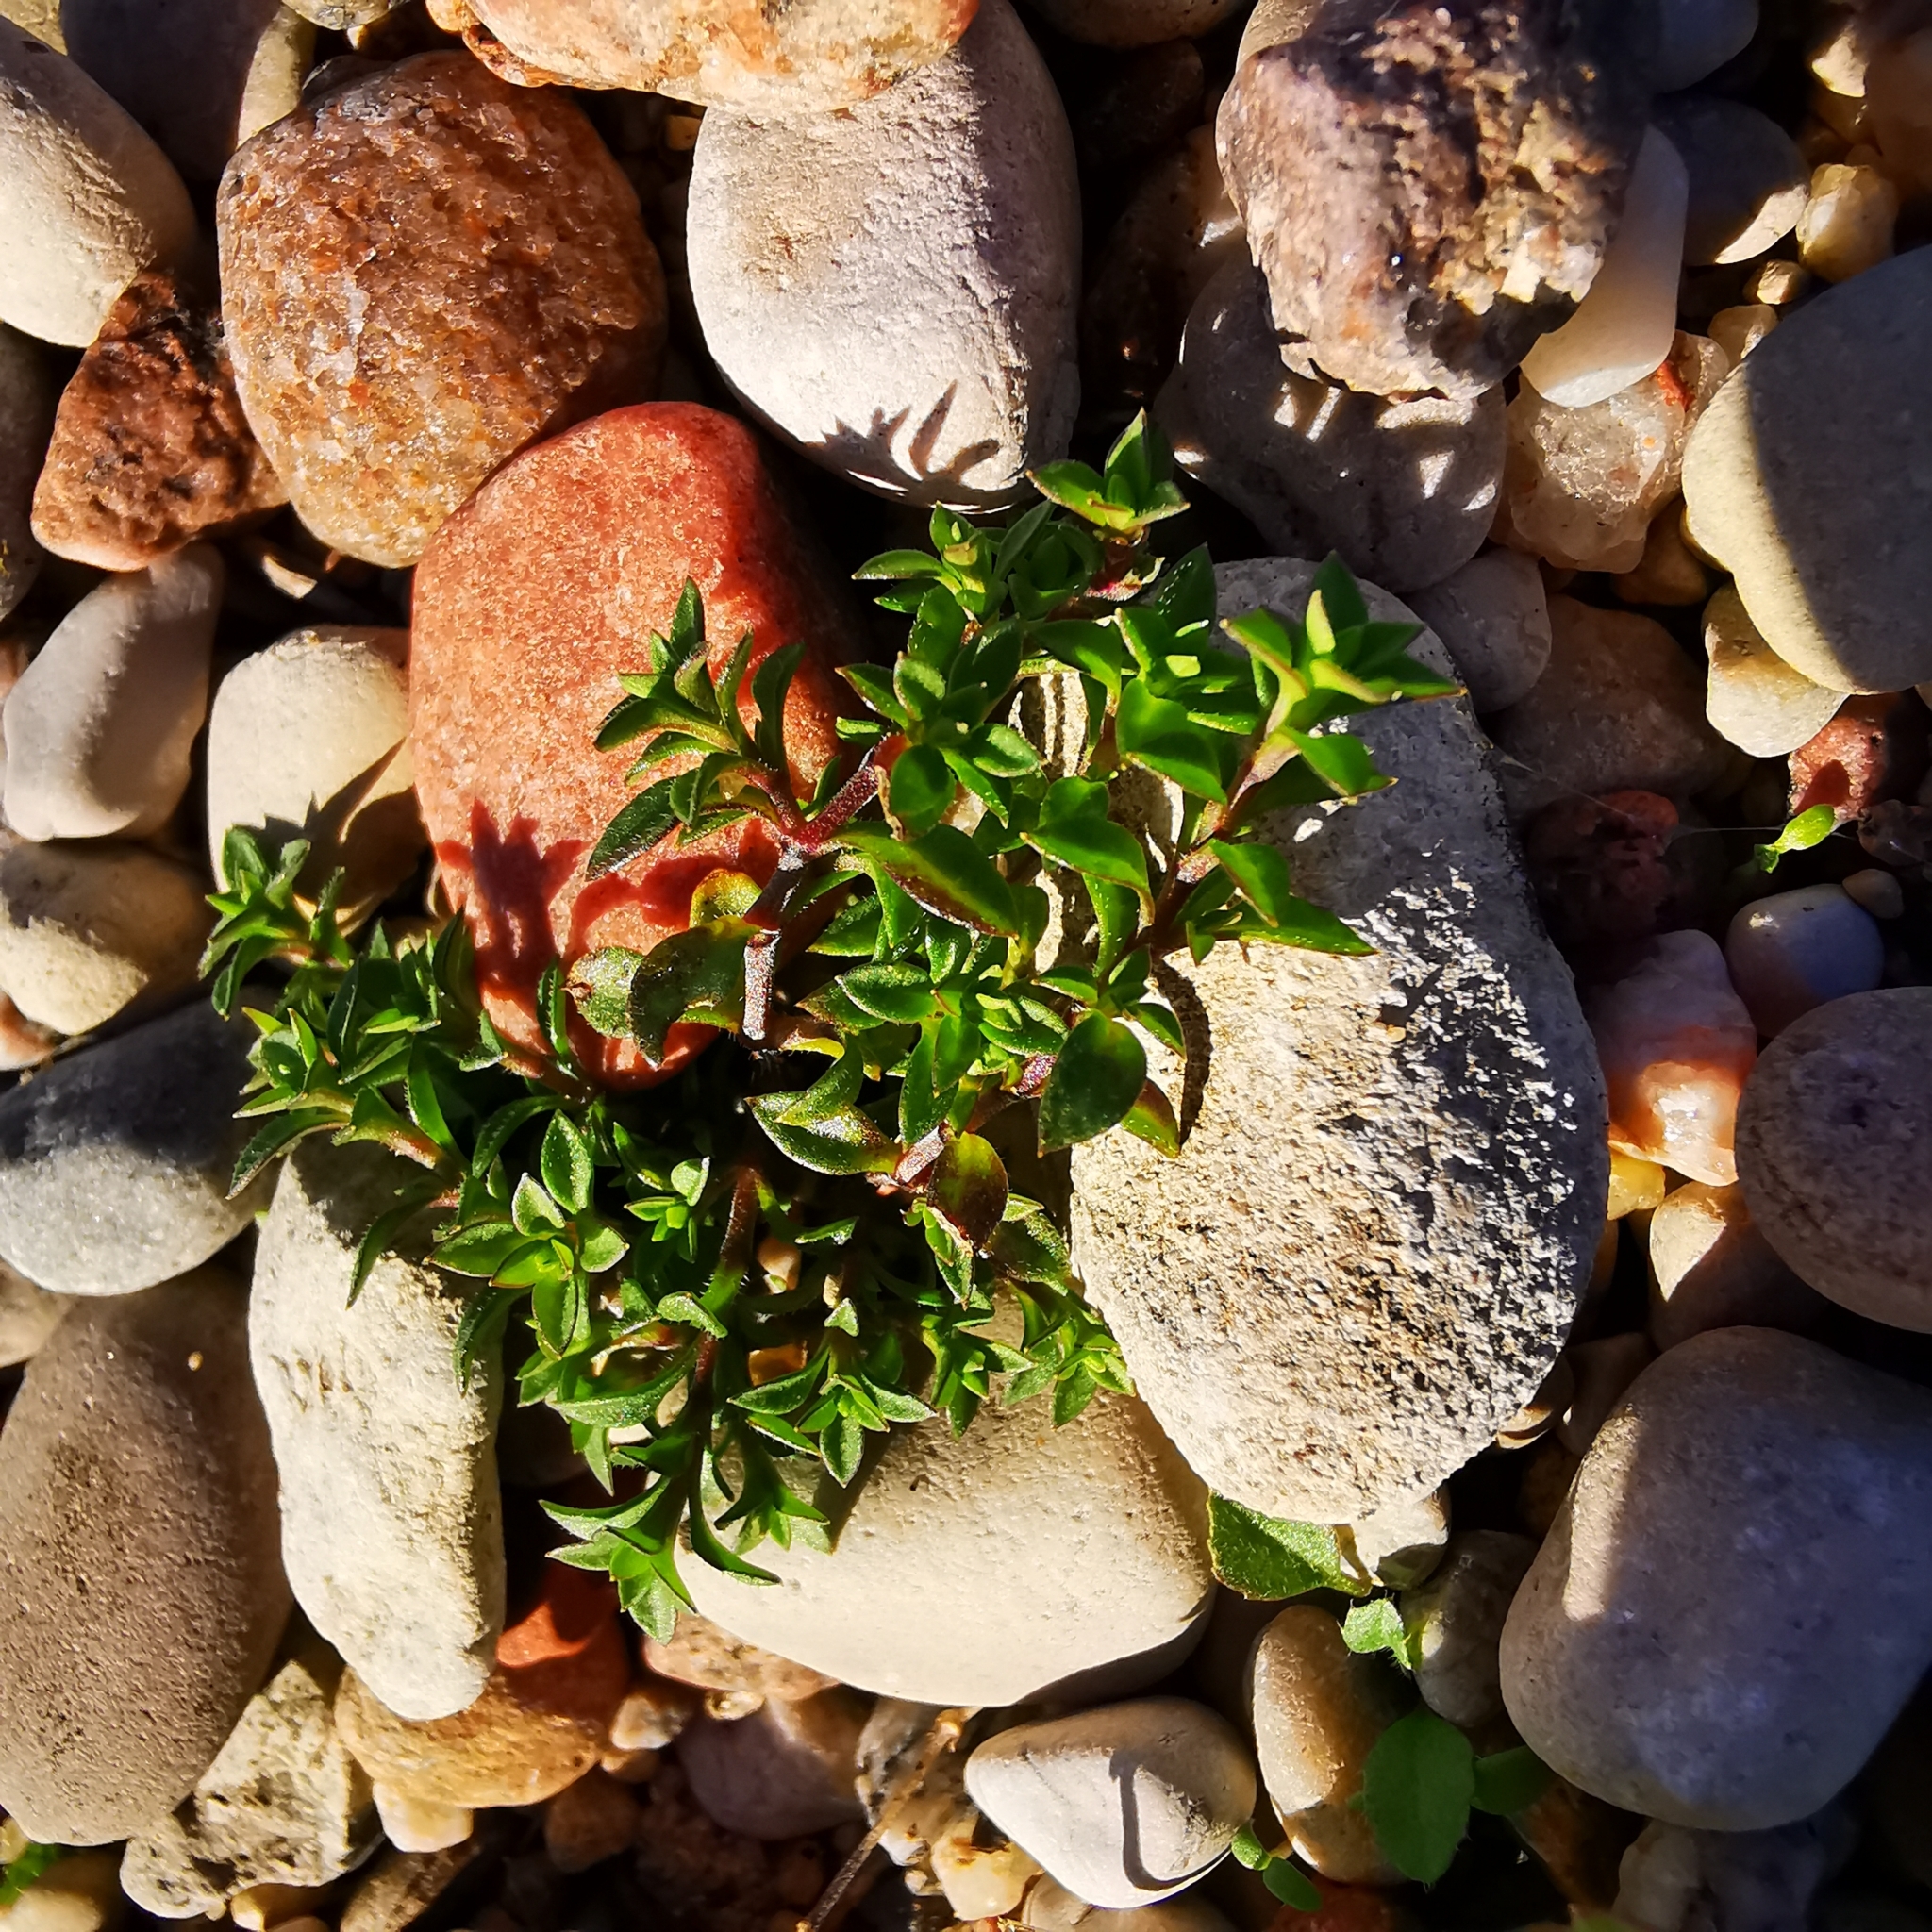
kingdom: Plantae
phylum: Tracheophyta
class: Magnoliopsida
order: Caryophyllales
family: Caryophyllaceae
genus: Arenaria
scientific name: Arenaria serpyllifolia
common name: Thyme-leaved sandwort
